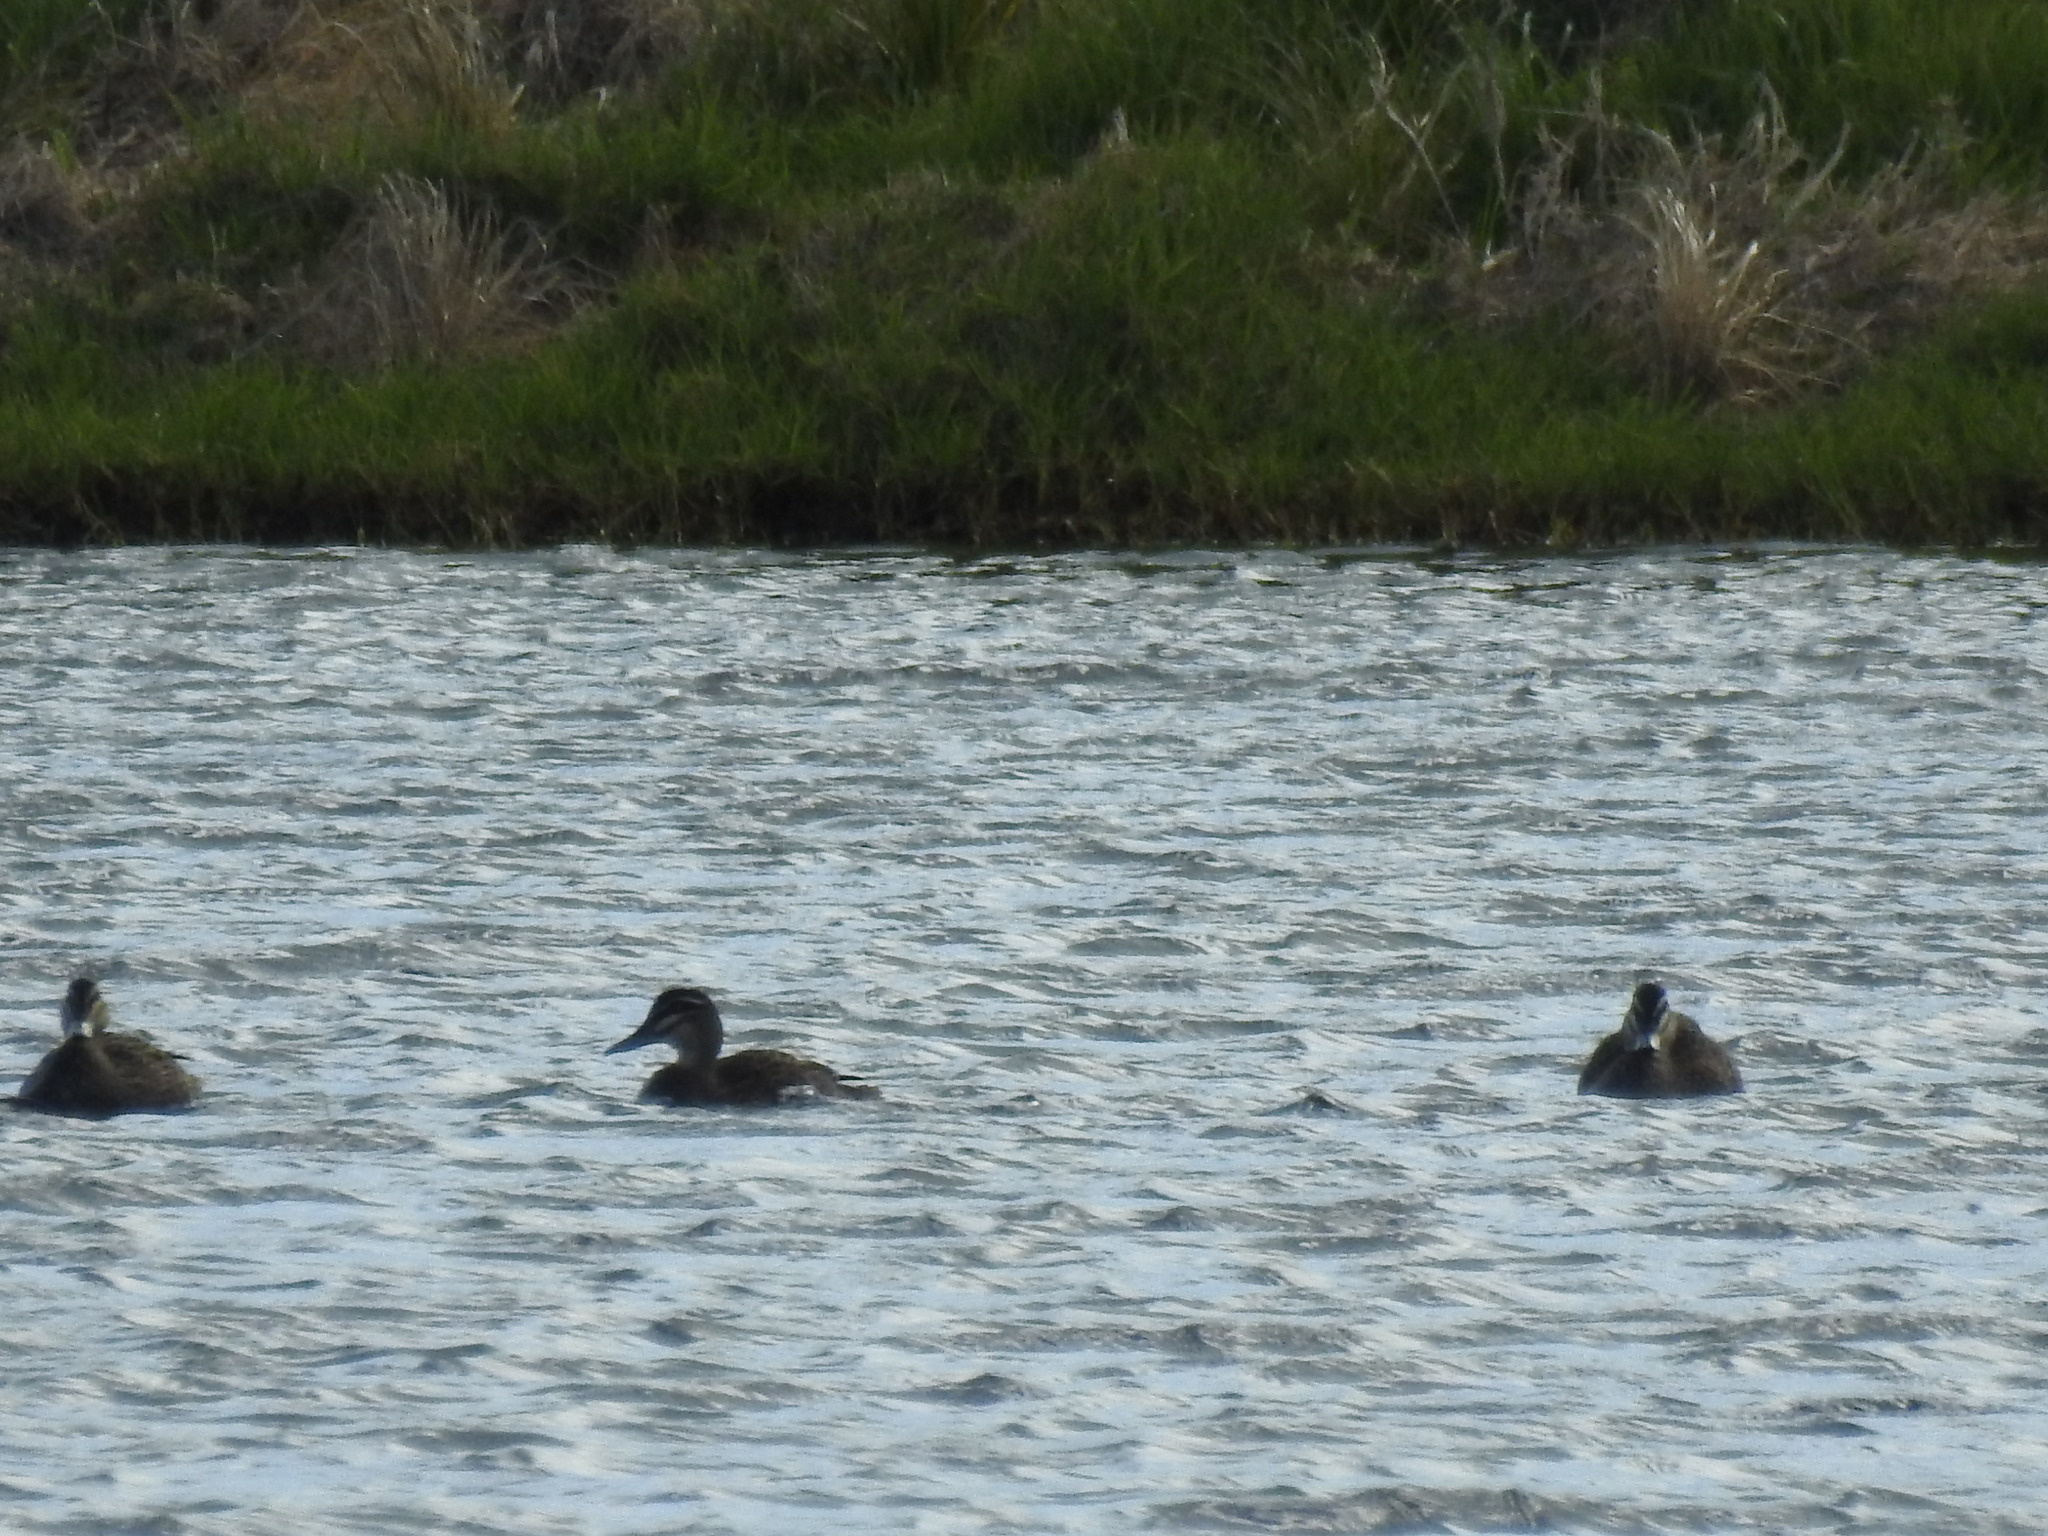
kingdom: Animalia
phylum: Chordata
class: Aves
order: Anseriformes
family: Anatidae
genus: Anas
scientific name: Anas superciliosa
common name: Pacific black duck
